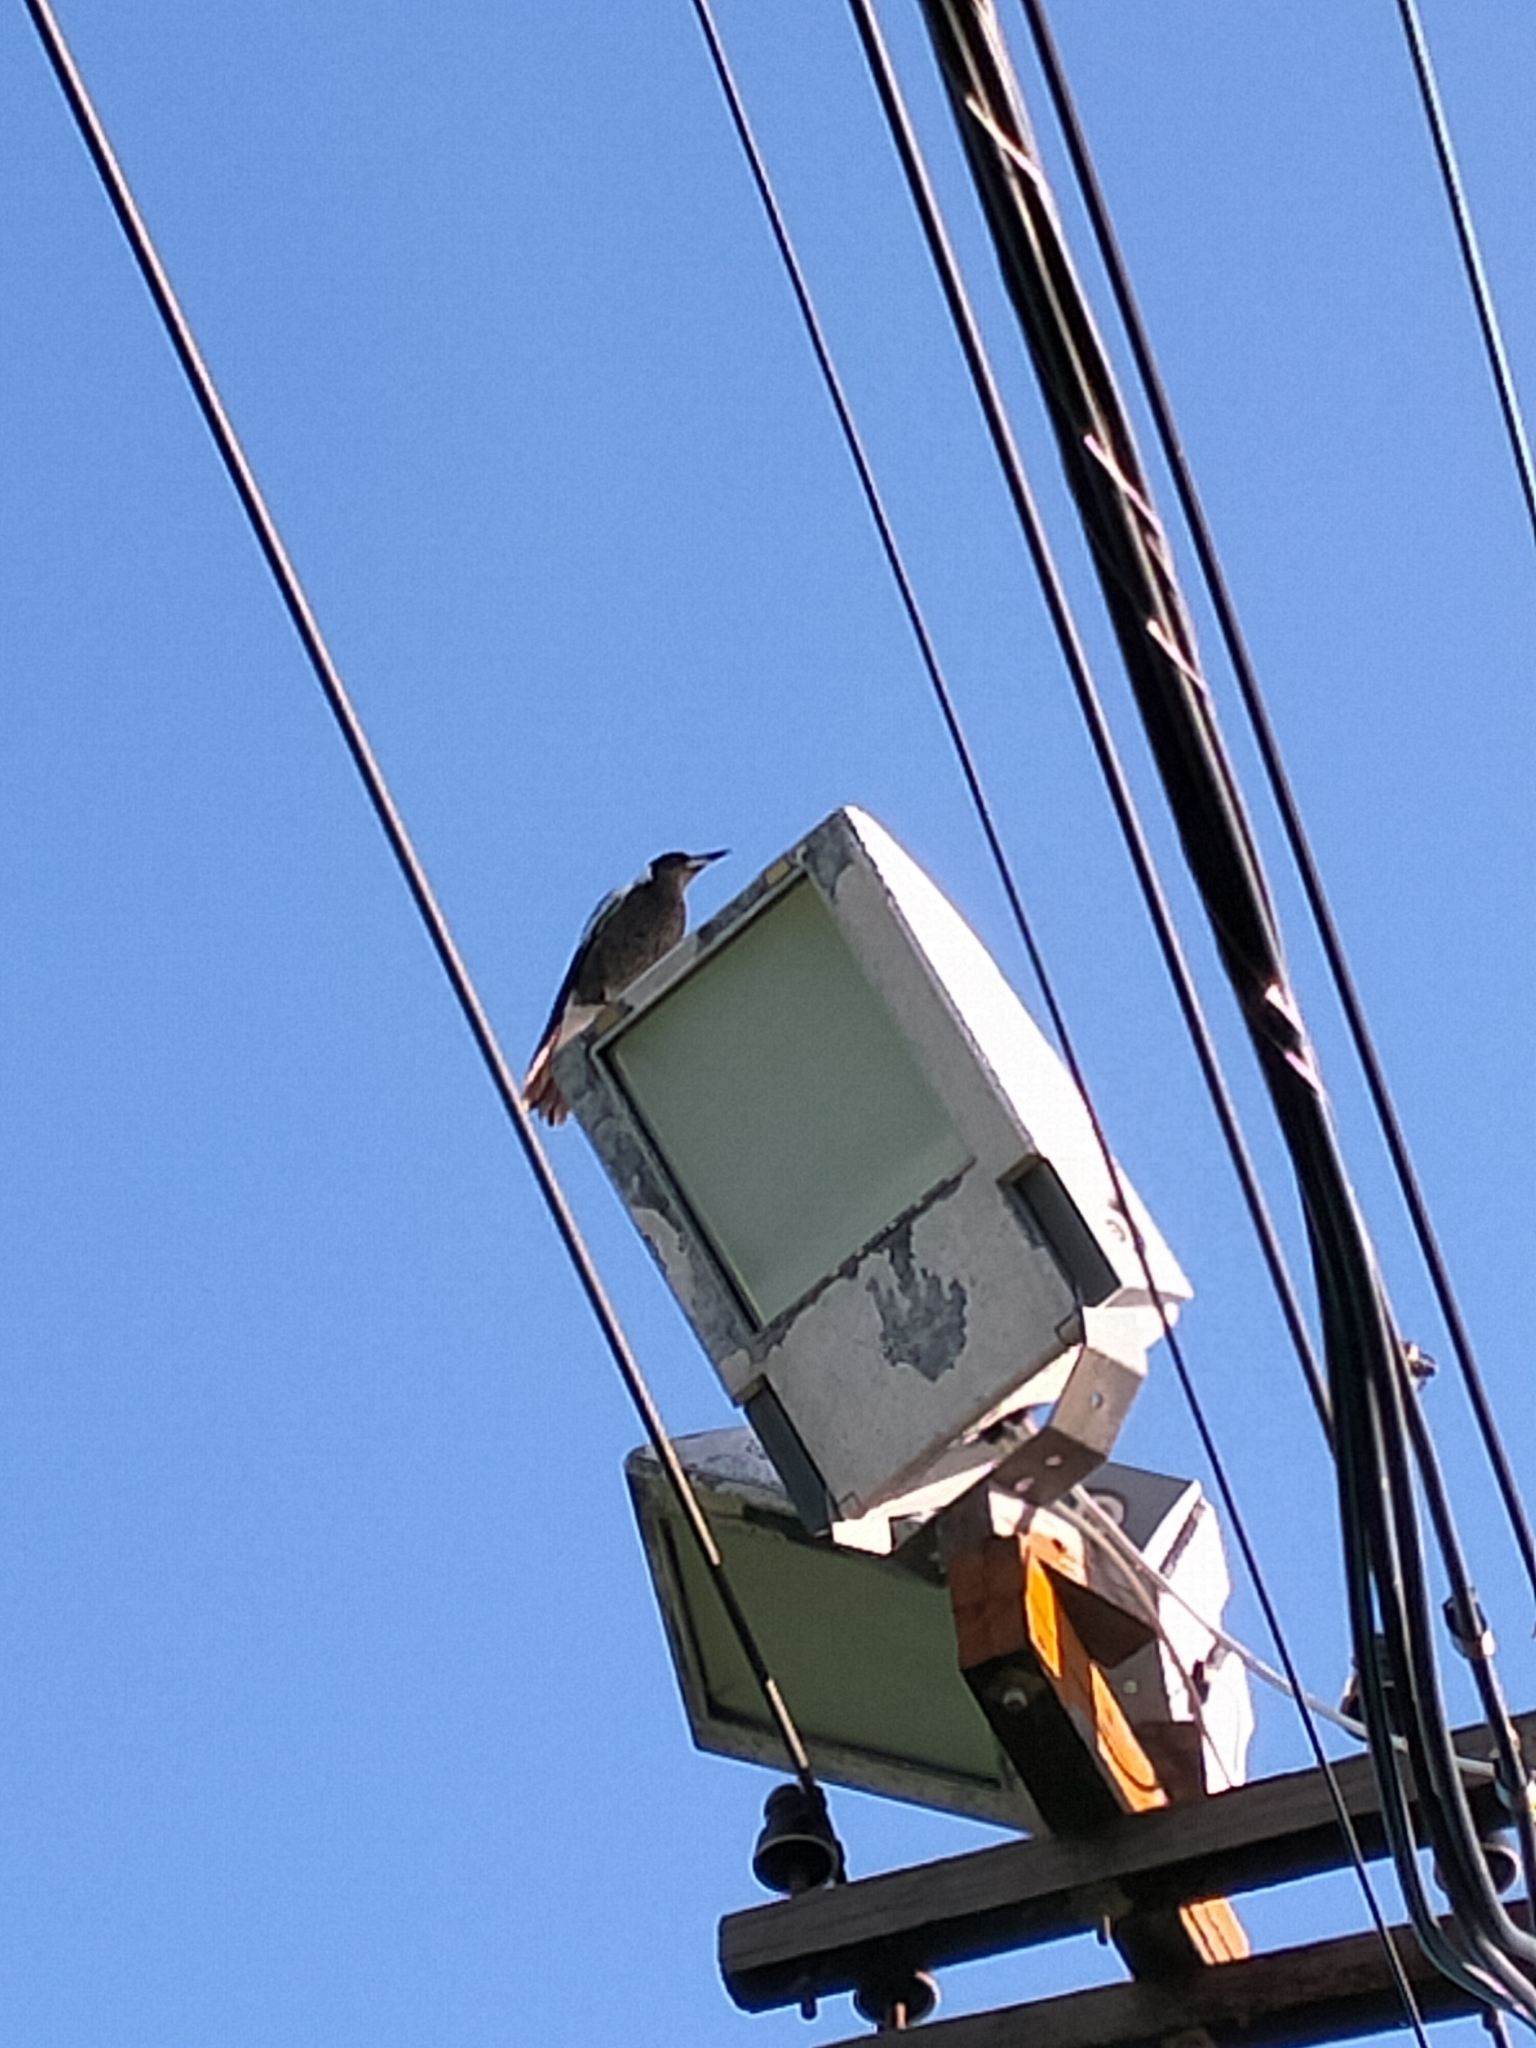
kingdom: Animalia
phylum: Chordata
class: Aves
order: Passeriformes
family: Cracticidae
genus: Gymnorhina
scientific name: Gymnorhina tibicen
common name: Australian magpie
